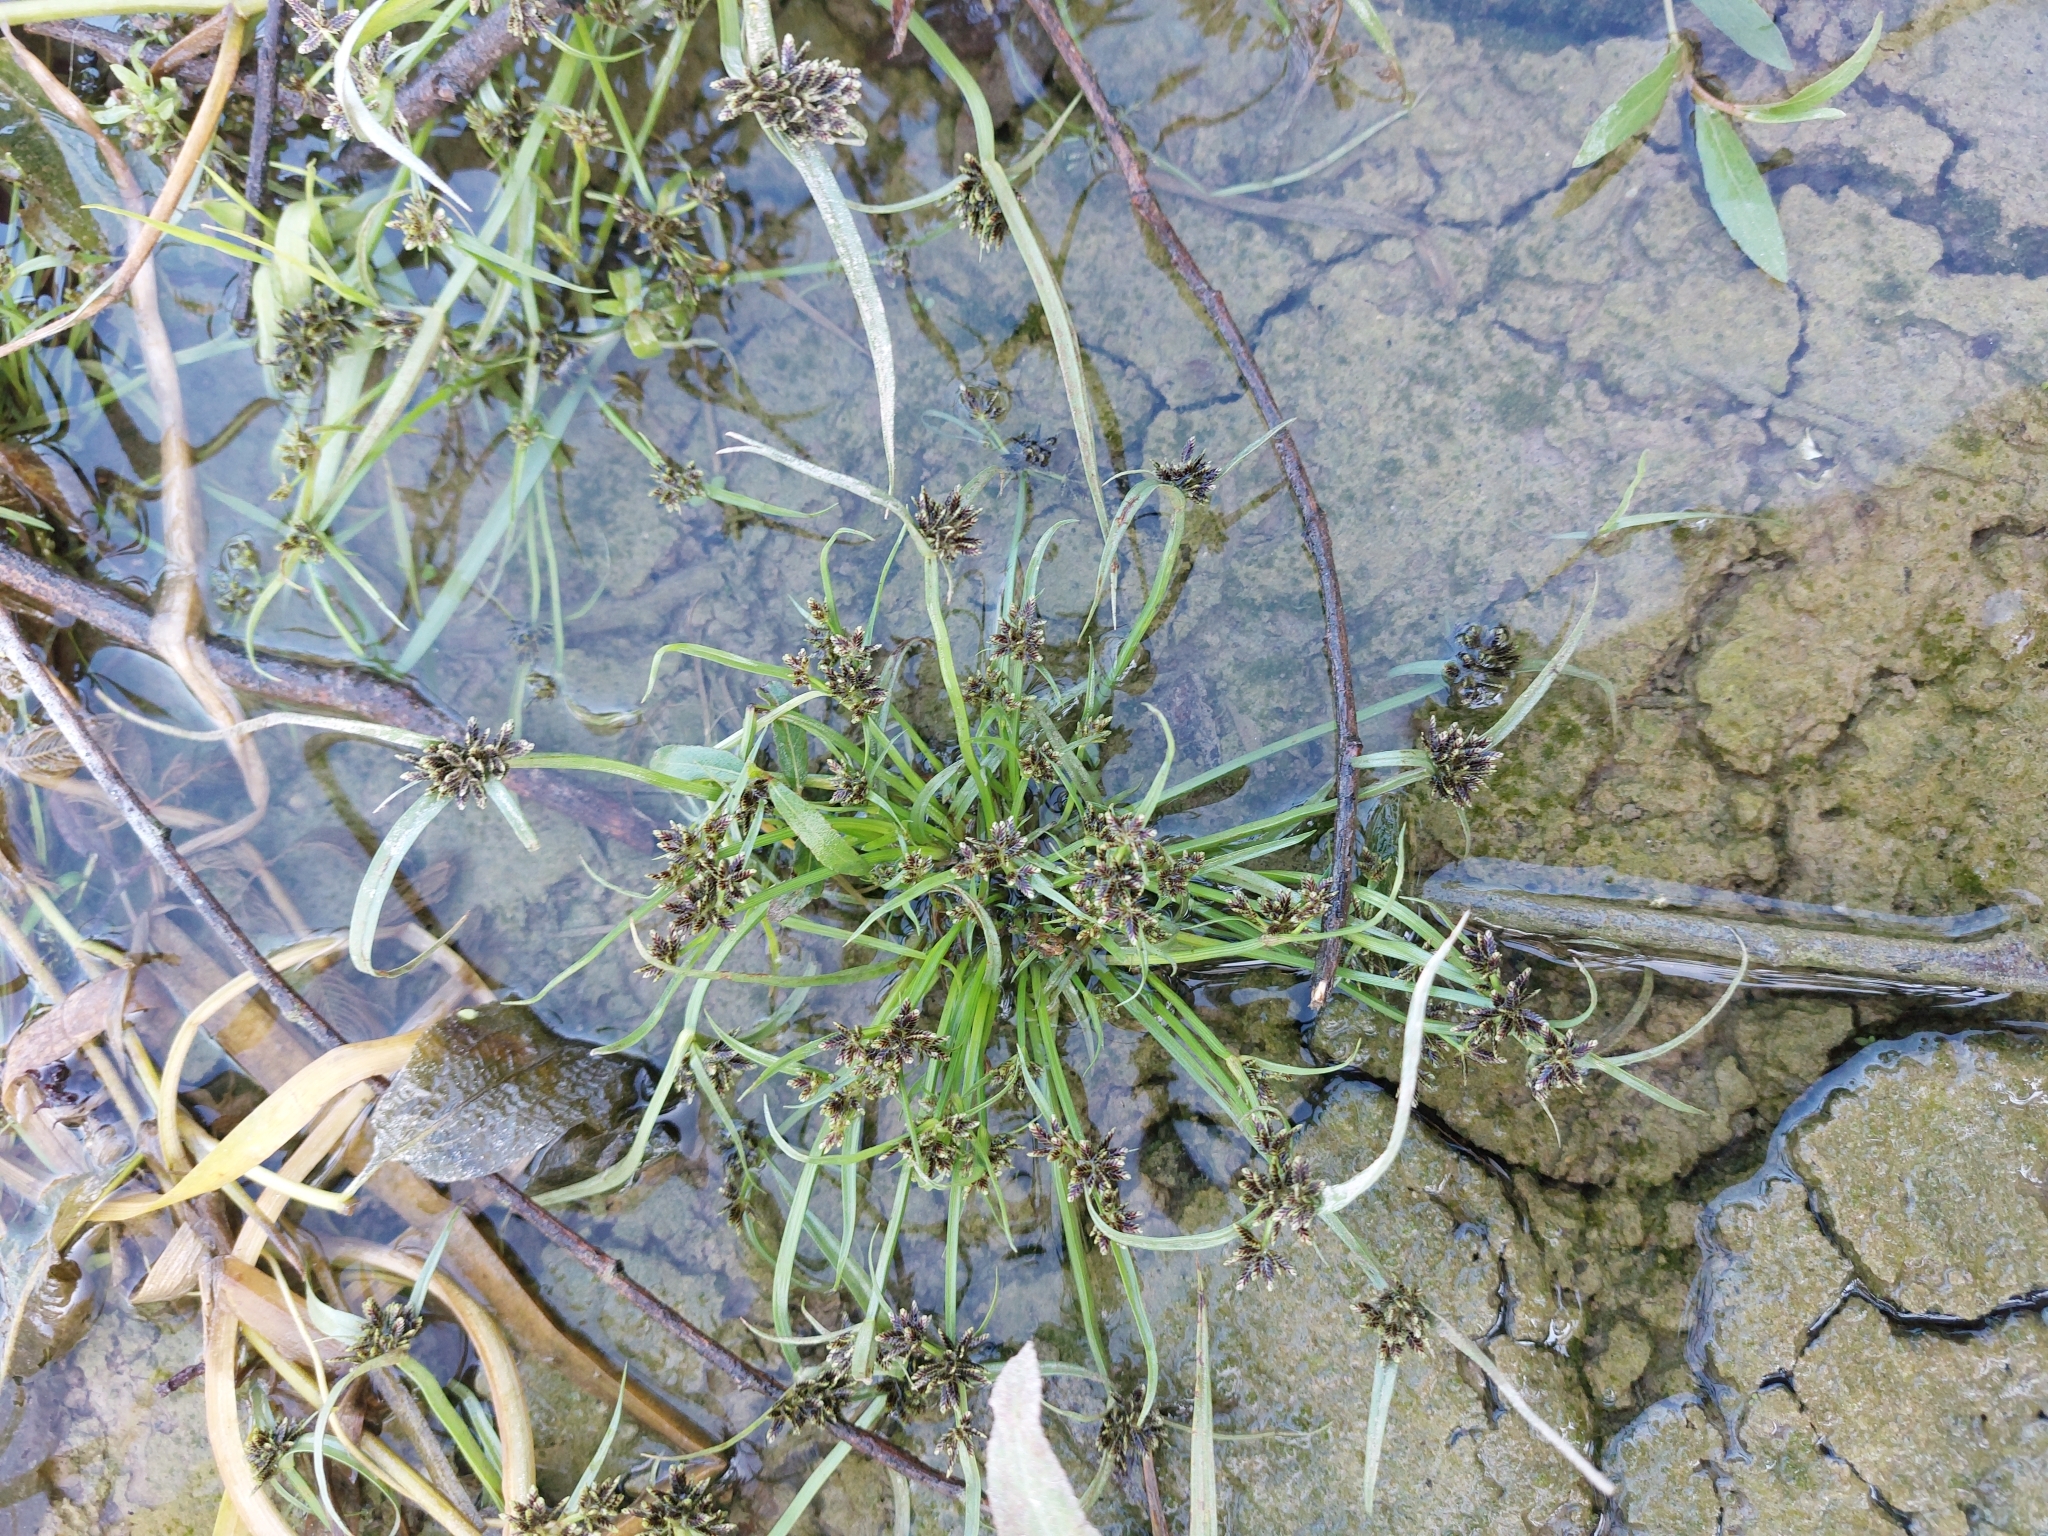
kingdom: Plantae
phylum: Tracheophyta
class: Liliopsida
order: Poales
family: Cyperaceae
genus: Cyperus
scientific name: Cyperus fuscus
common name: Brown galingale
